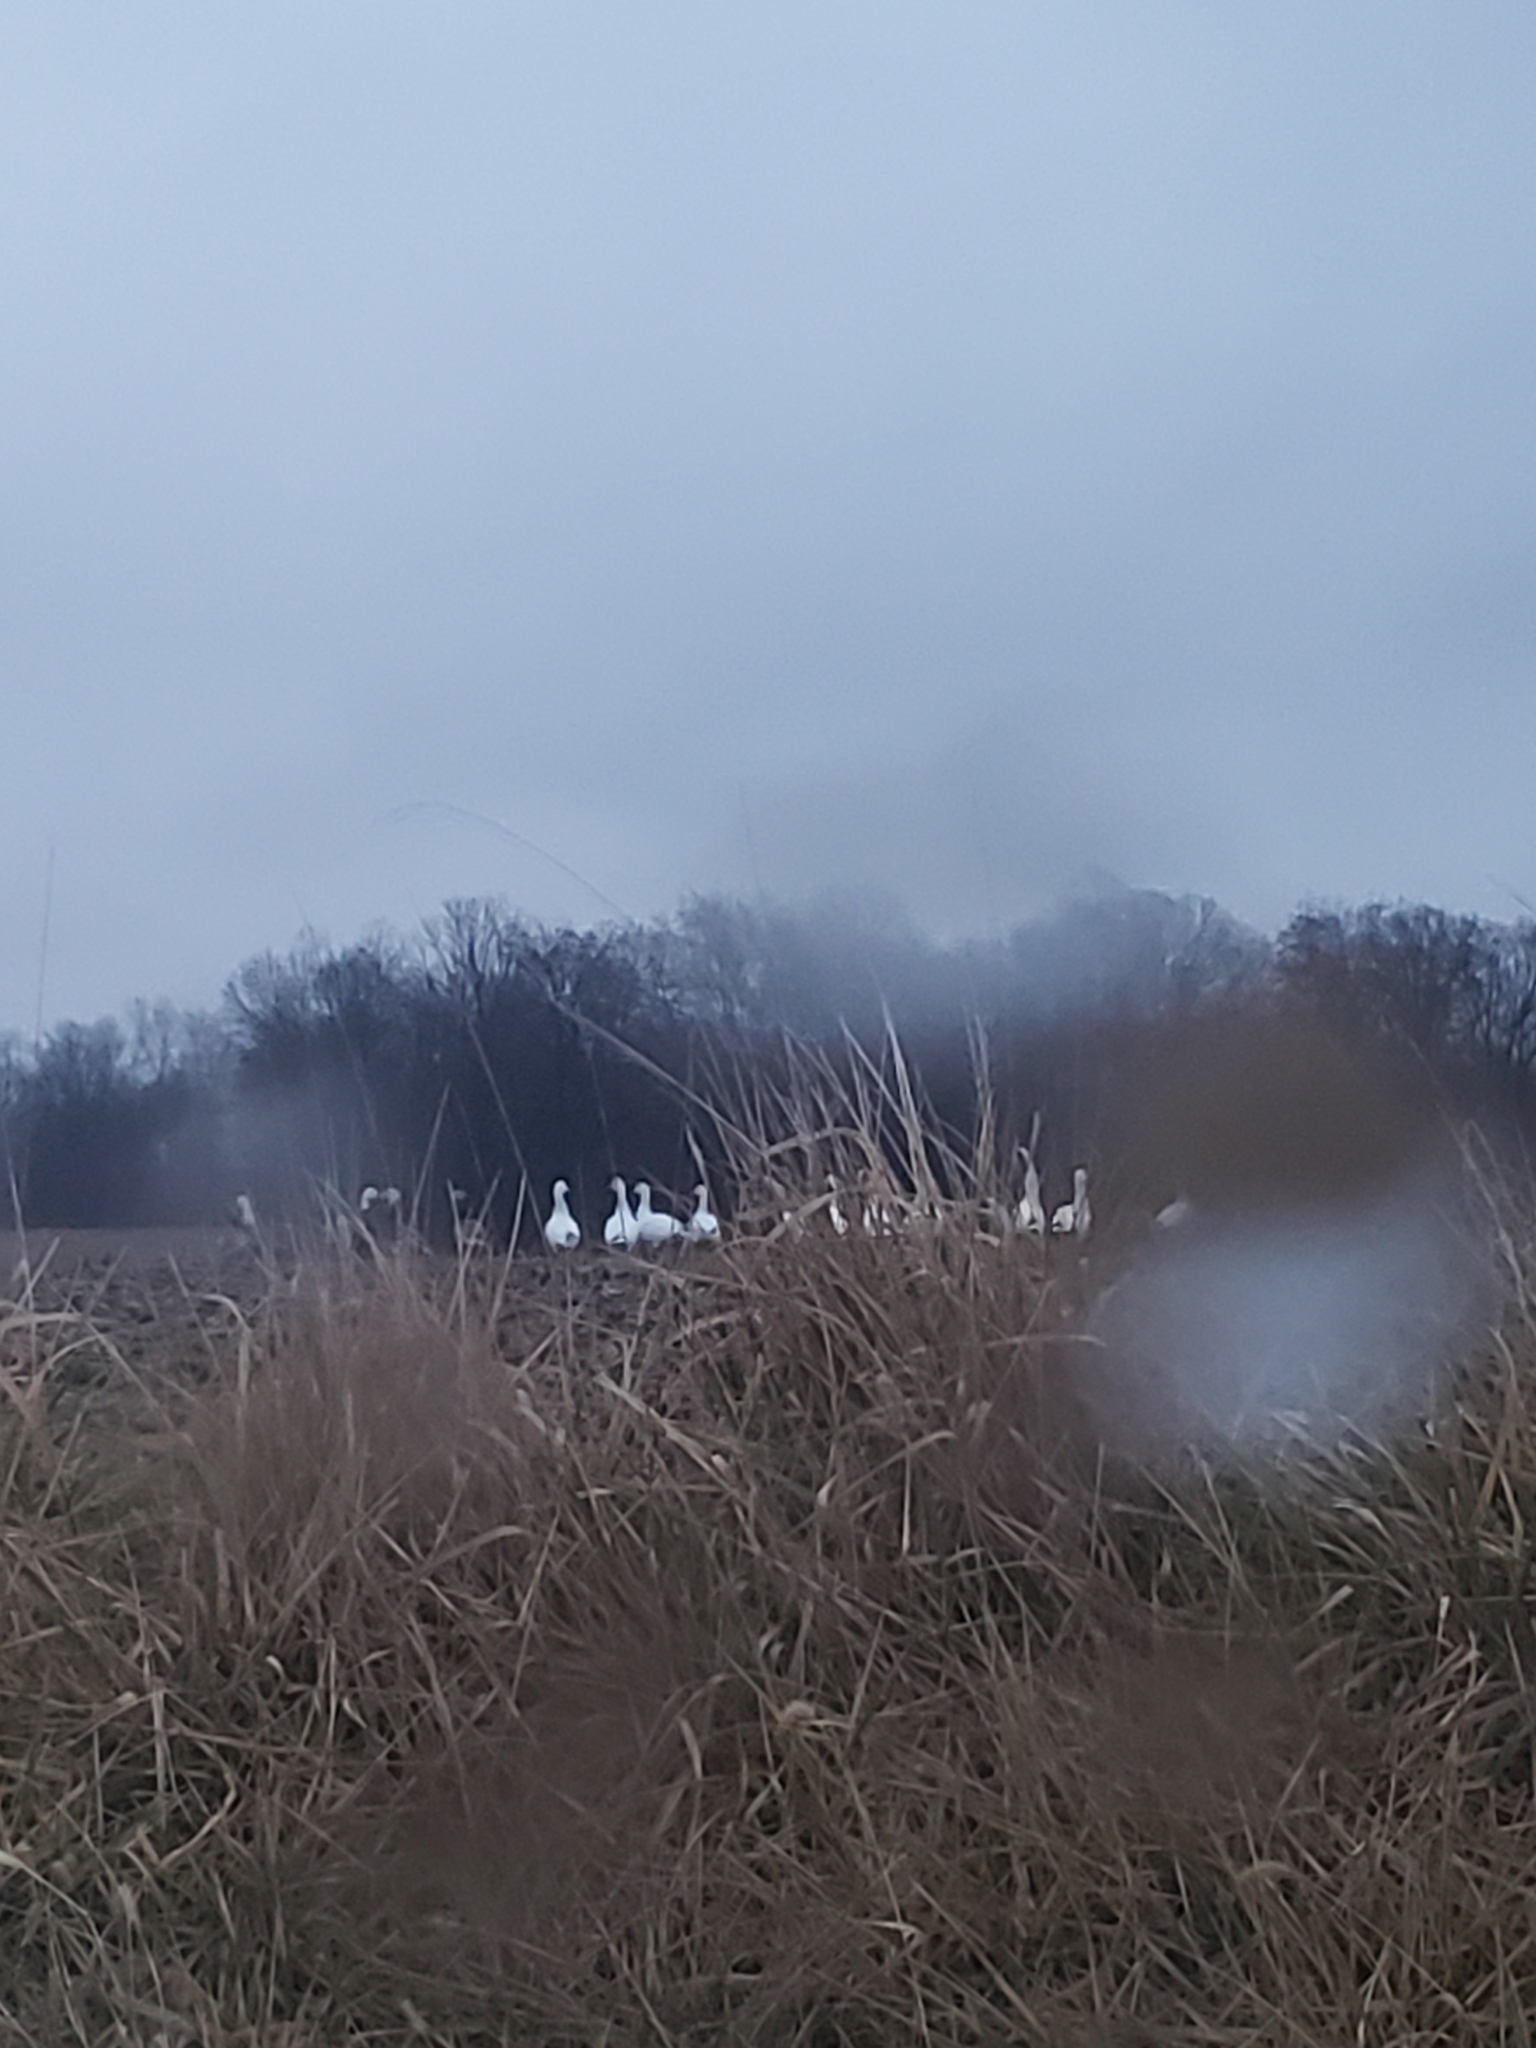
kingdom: Animalia
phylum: Chordata
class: Aves
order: Anseriformes
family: Anatidae
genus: Anser
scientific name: Anser caerulescens
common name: Snow goose
